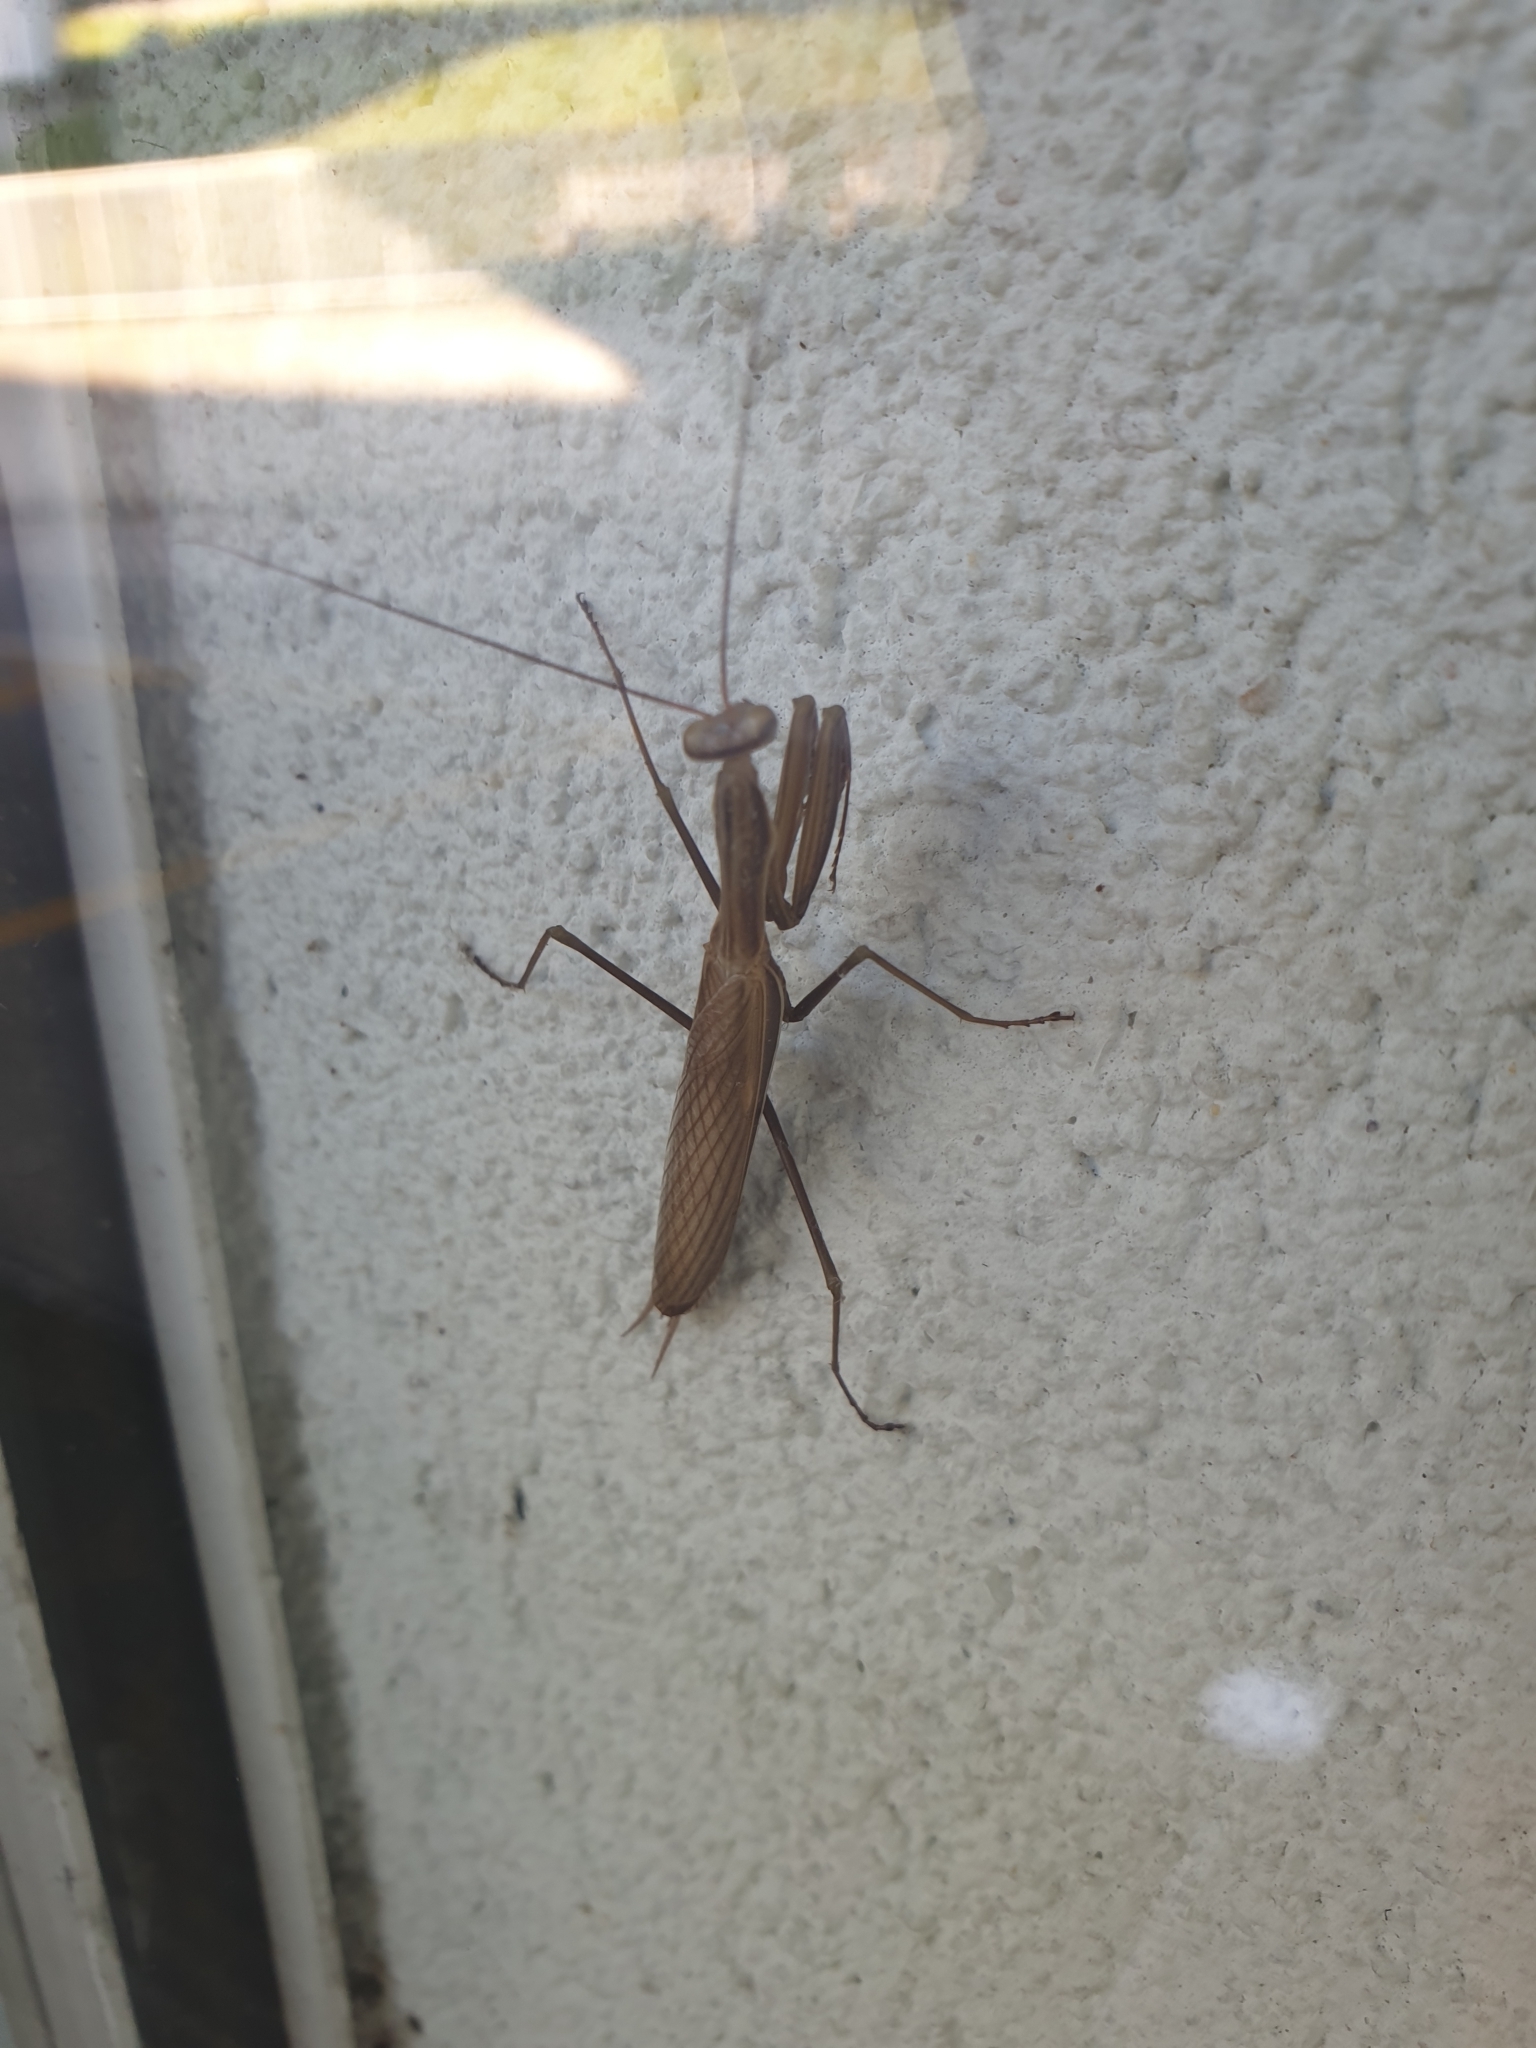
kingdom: Animalia
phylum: Arthropoda
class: Insecta
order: Mantodea
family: Mantidae
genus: Mantis
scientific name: Mantis religiosa
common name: Praying mantis
